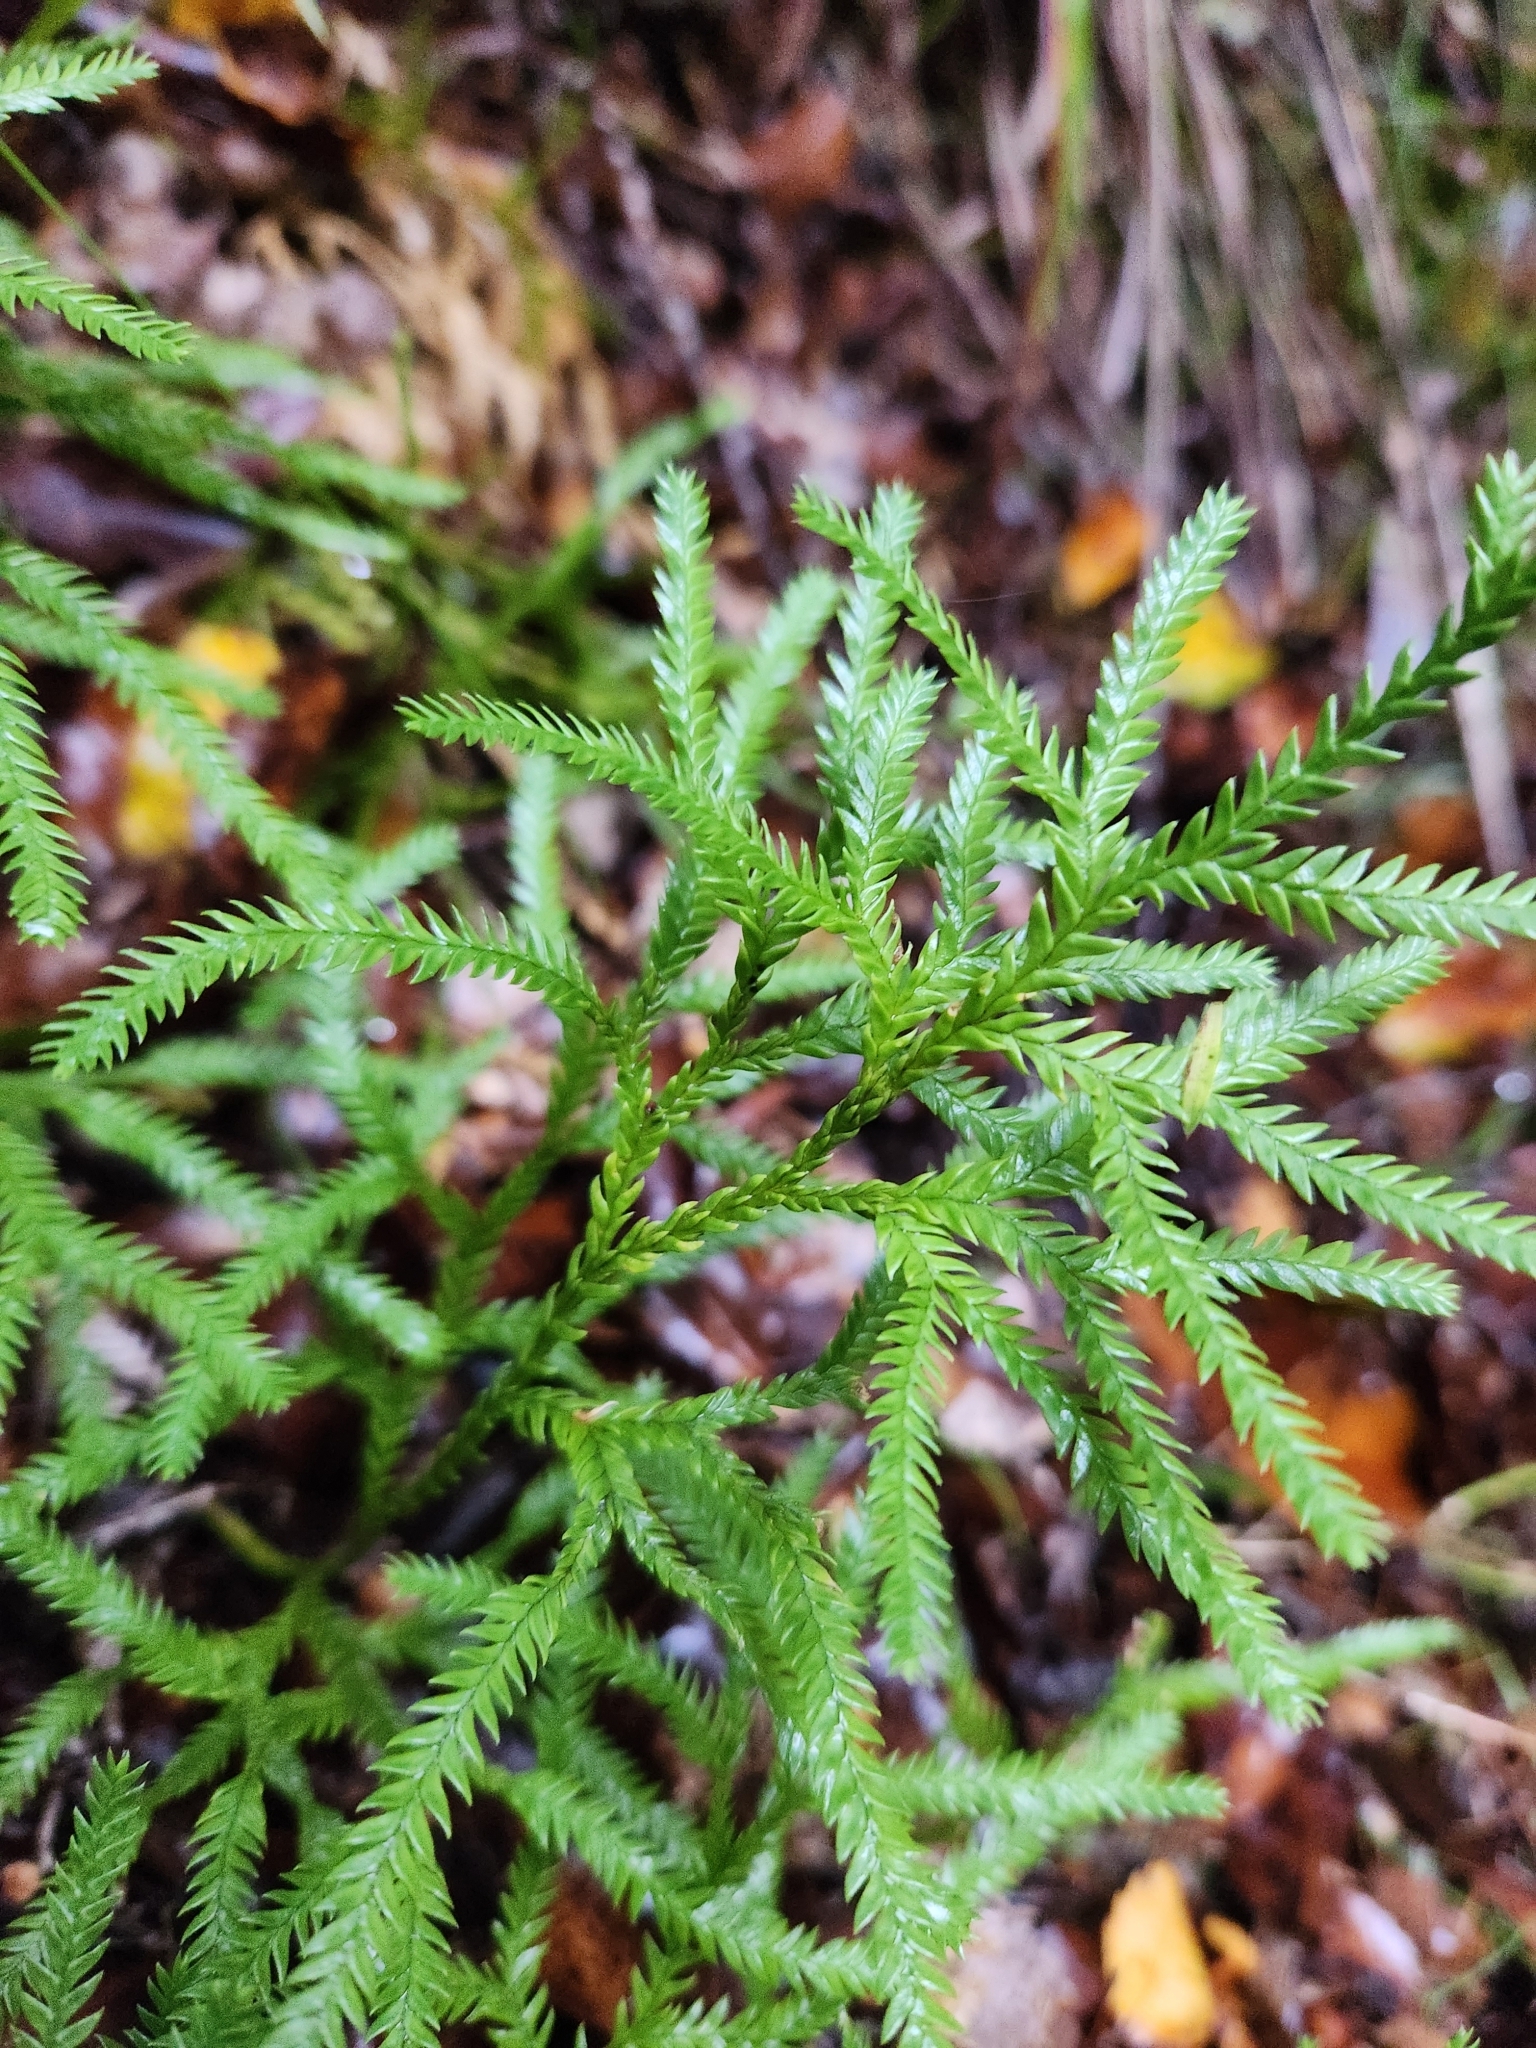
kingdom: Plantae
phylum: Tracheophyta
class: Lycopodiopsida
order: Lycopodiales
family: Lycopodiaceae
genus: Lycopodium
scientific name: Lycopodium volubile
